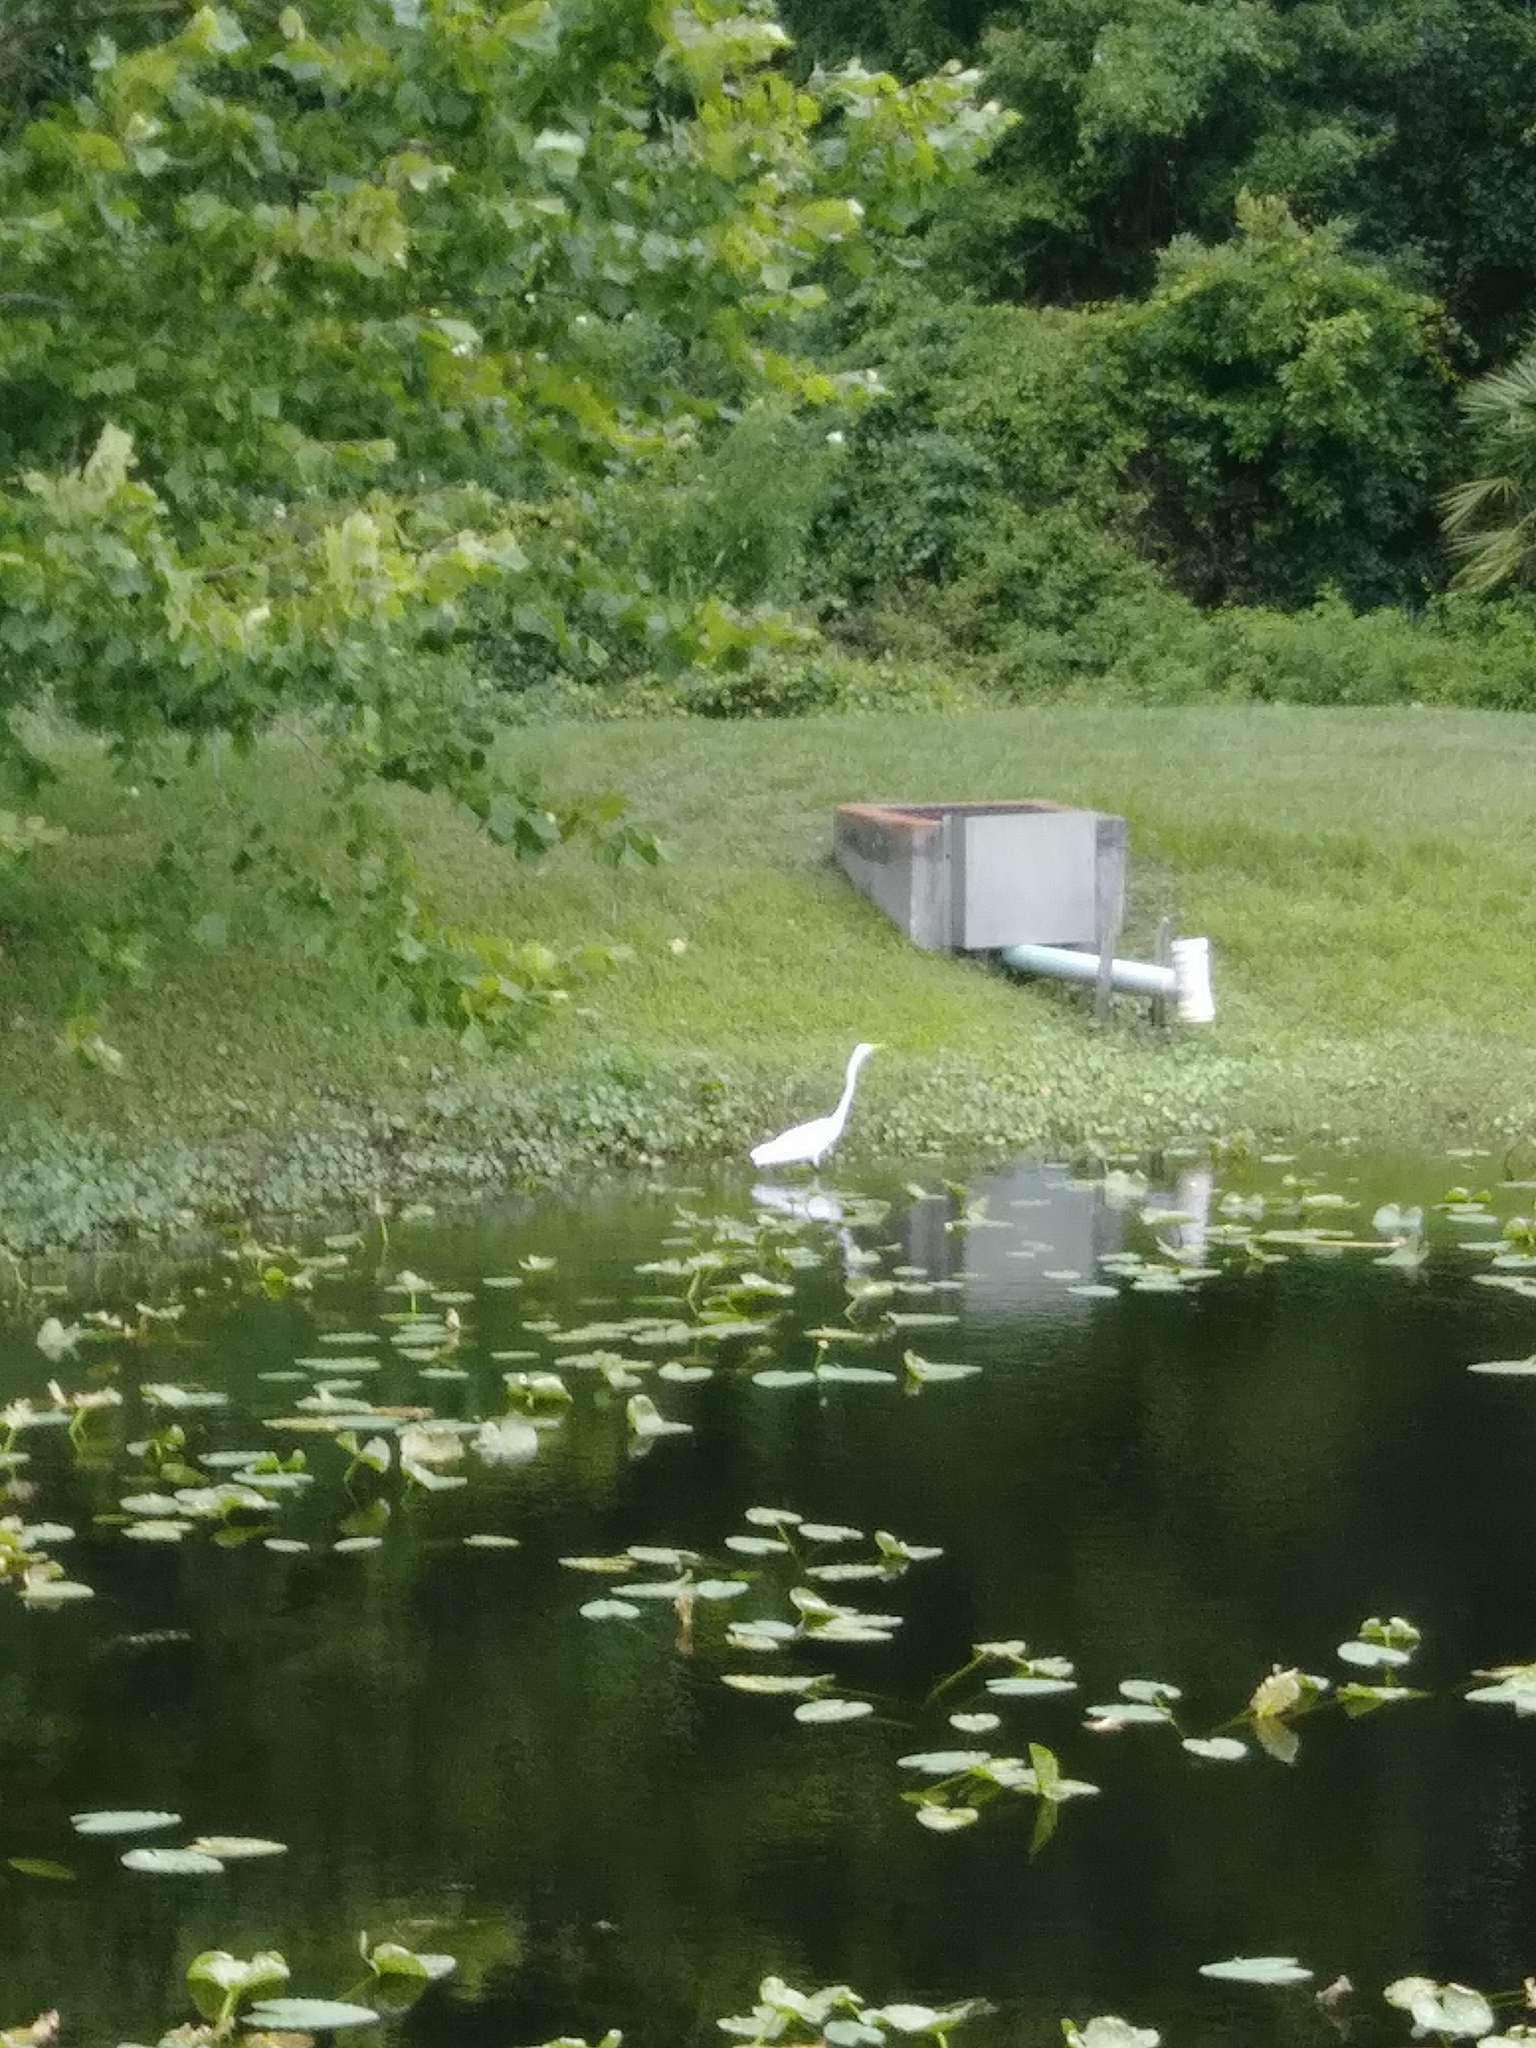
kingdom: Animalia
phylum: Chordata
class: Aves
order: Pelecaniformes
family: Ardeidae
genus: Ardea
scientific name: Ardea alba
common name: Great egret
